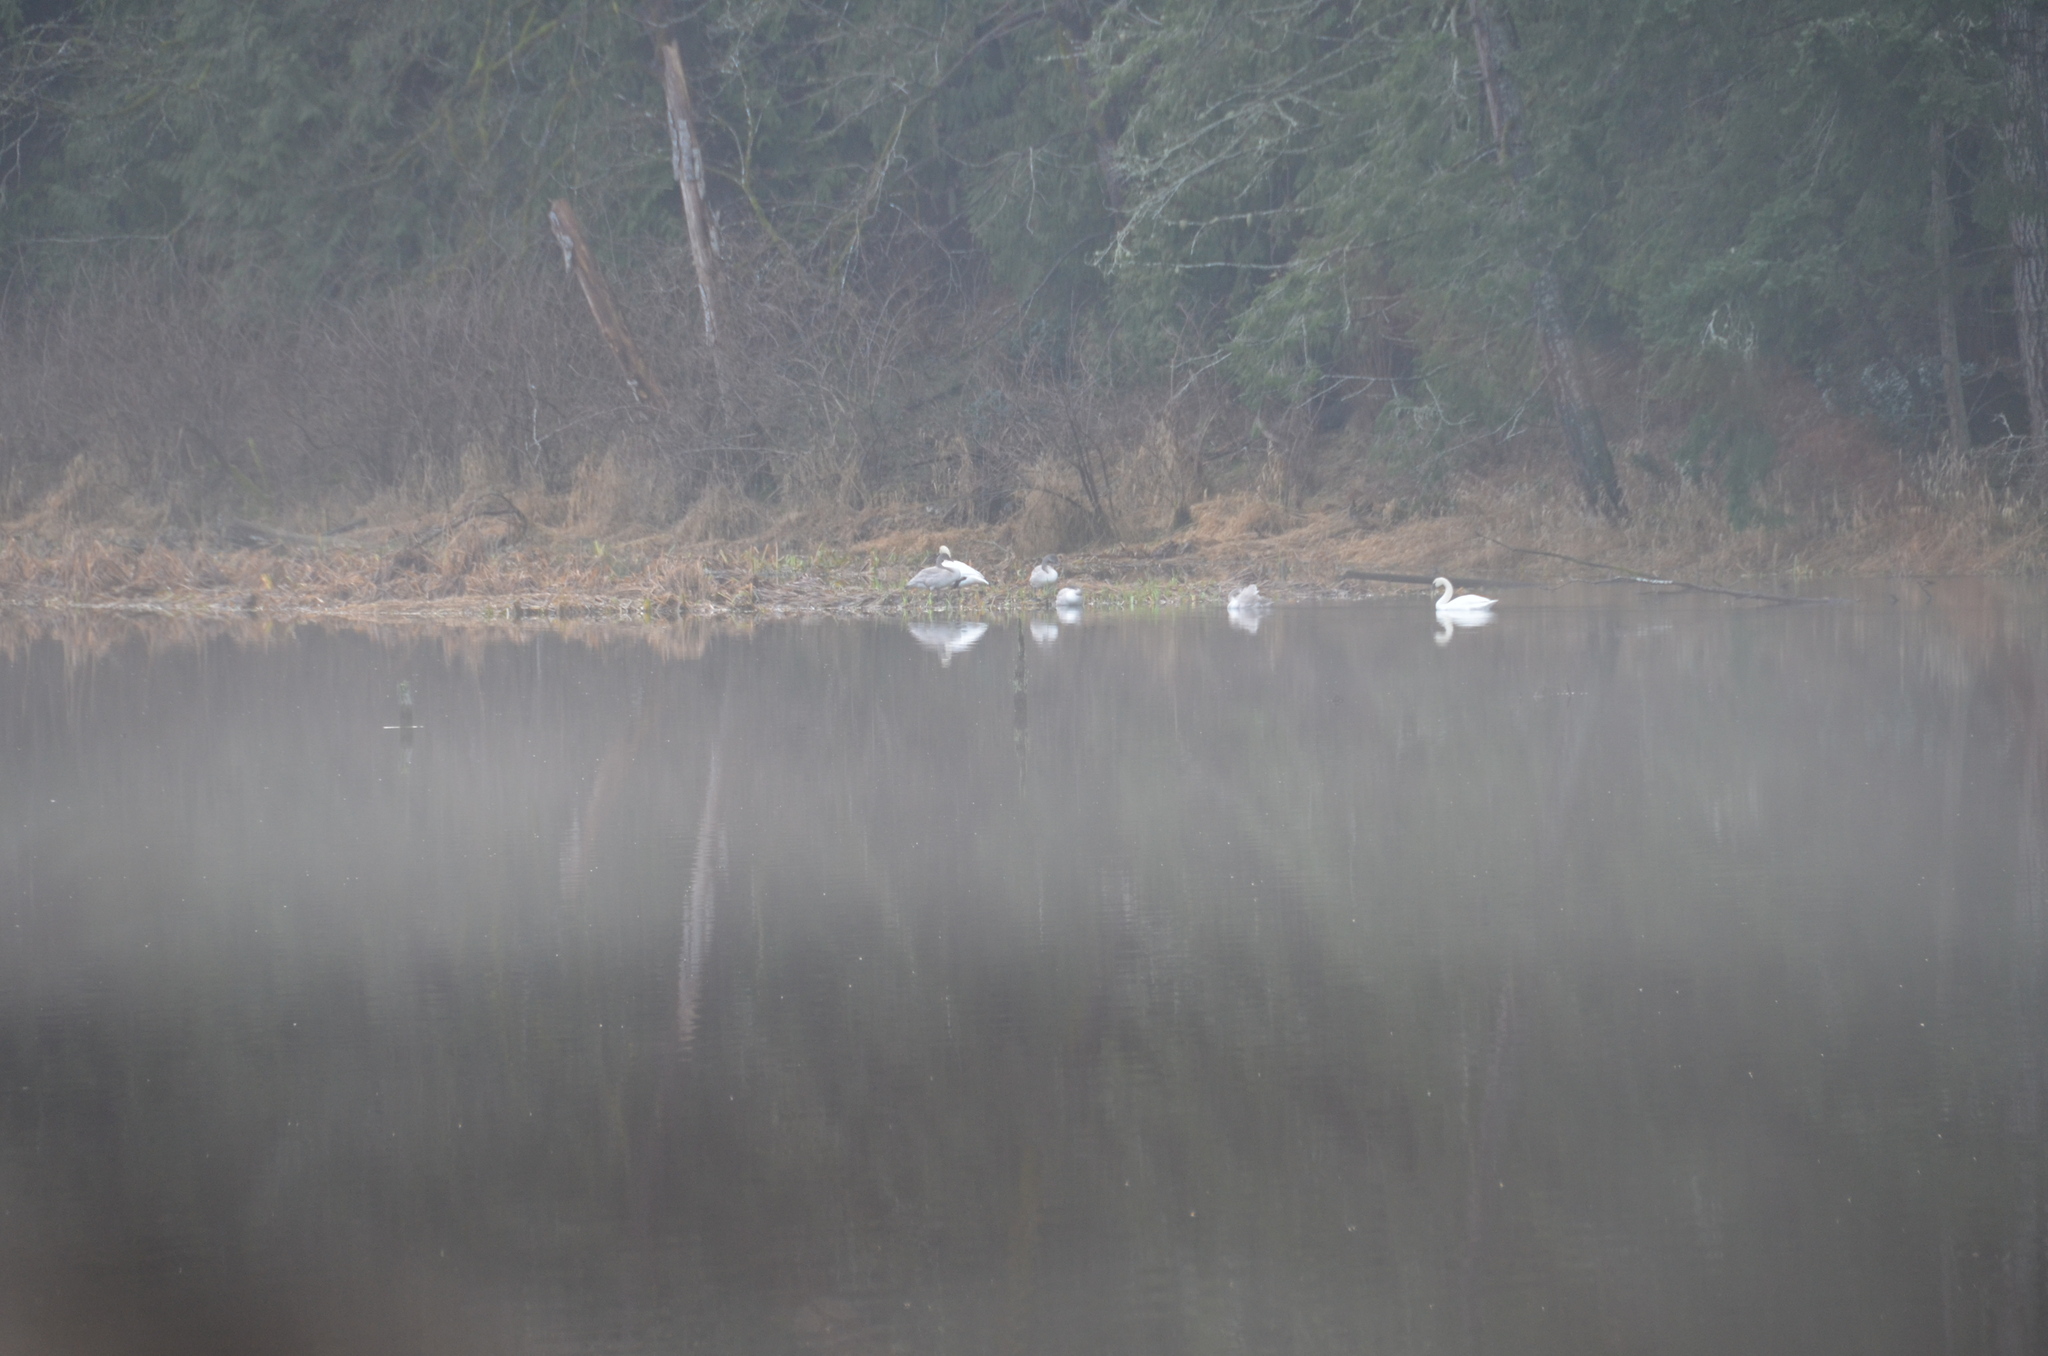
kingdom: Animalia
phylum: Chordata
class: Aves
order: Anseriformes
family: Anatidae
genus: Cygnus
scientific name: Cygnus buccinator
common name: Trumpeter swan
